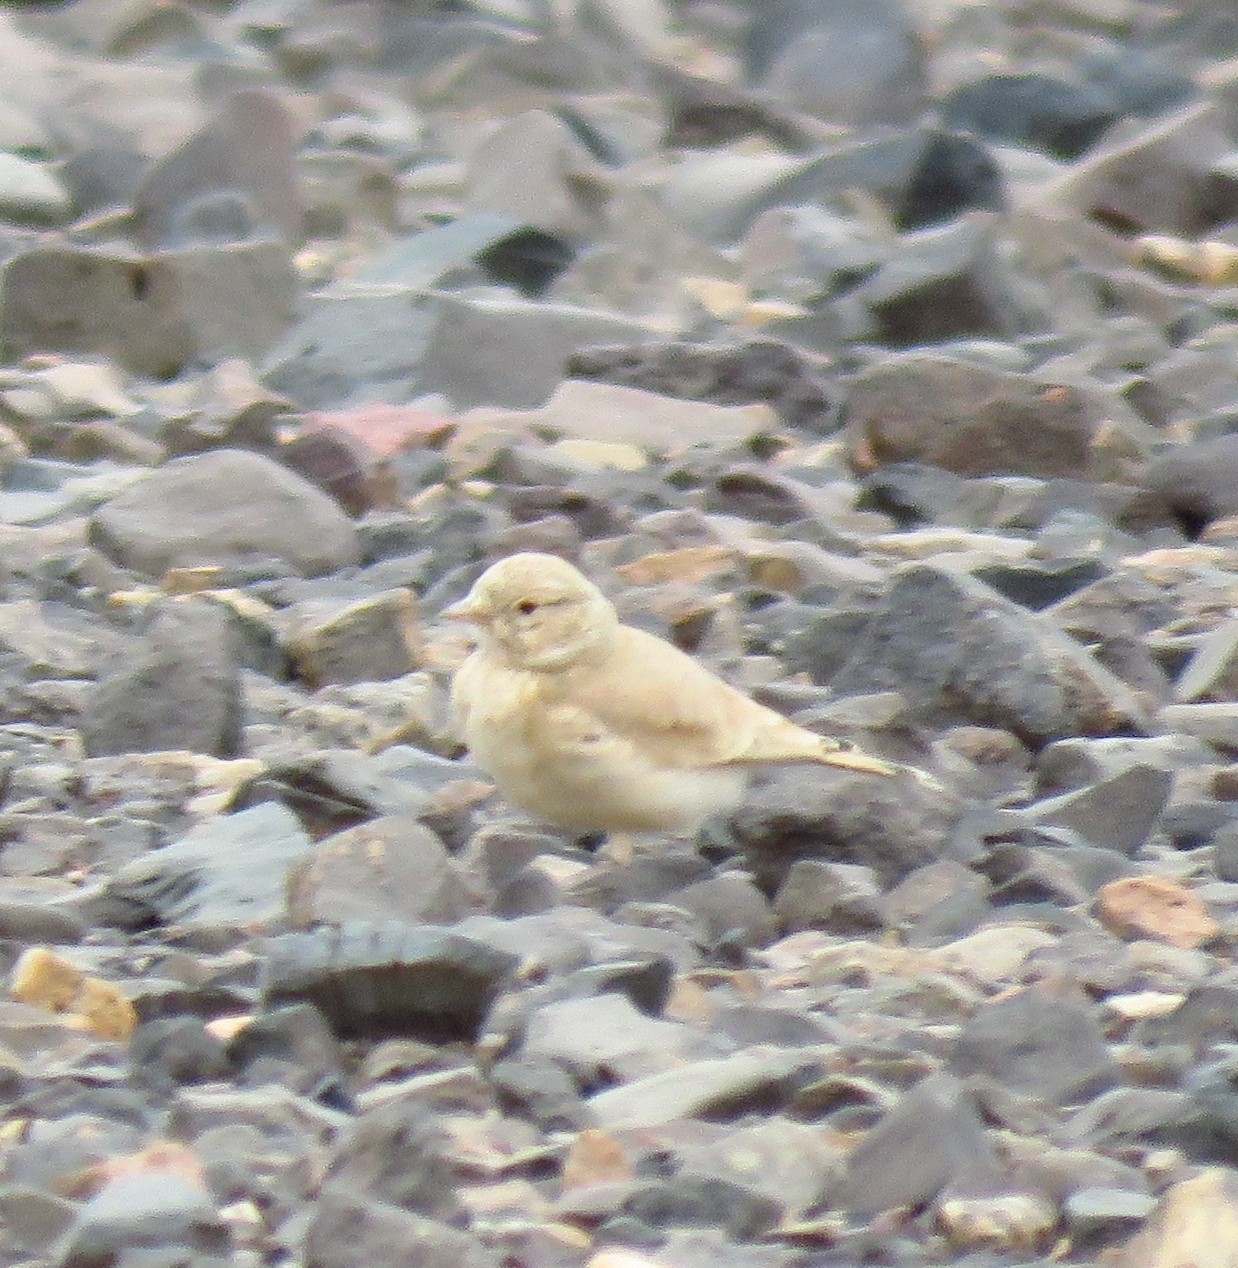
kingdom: Animalia
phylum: Chordata
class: Aves
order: Passeriformes
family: Alaudidae
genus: Ammomanes
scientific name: Ammomanes cinctura
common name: Bar-tailed lark
